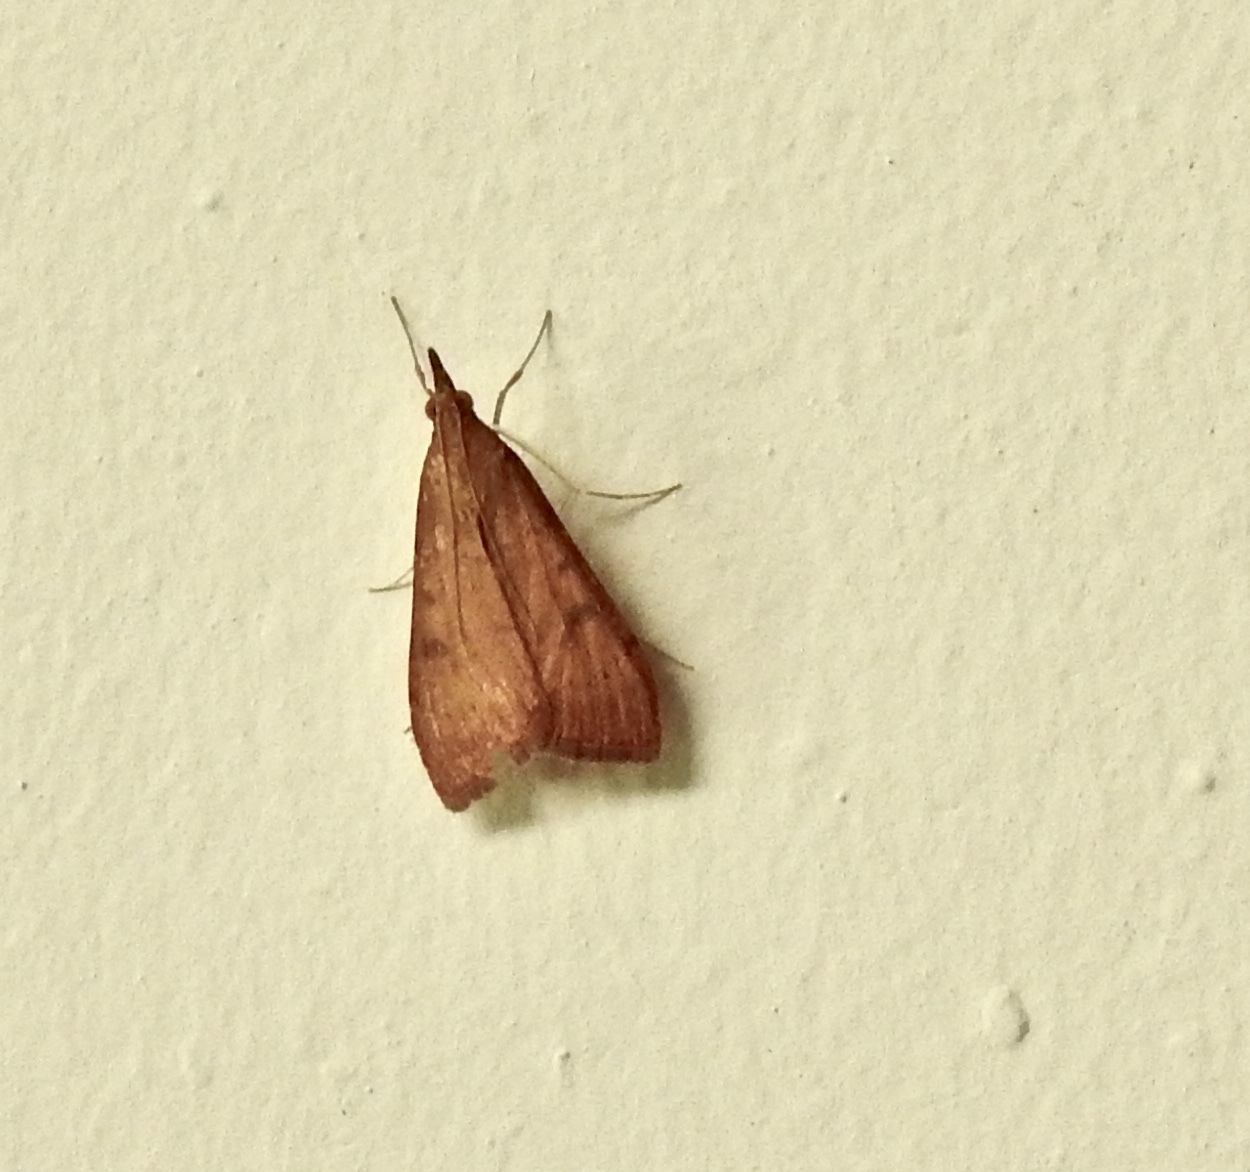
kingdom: Animalia
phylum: Arthropoda
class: Insecta
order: Lepidoptera
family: Crambidae
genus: Uresiphita
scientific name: Uresiphita reversalis
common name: Genista broom moth
